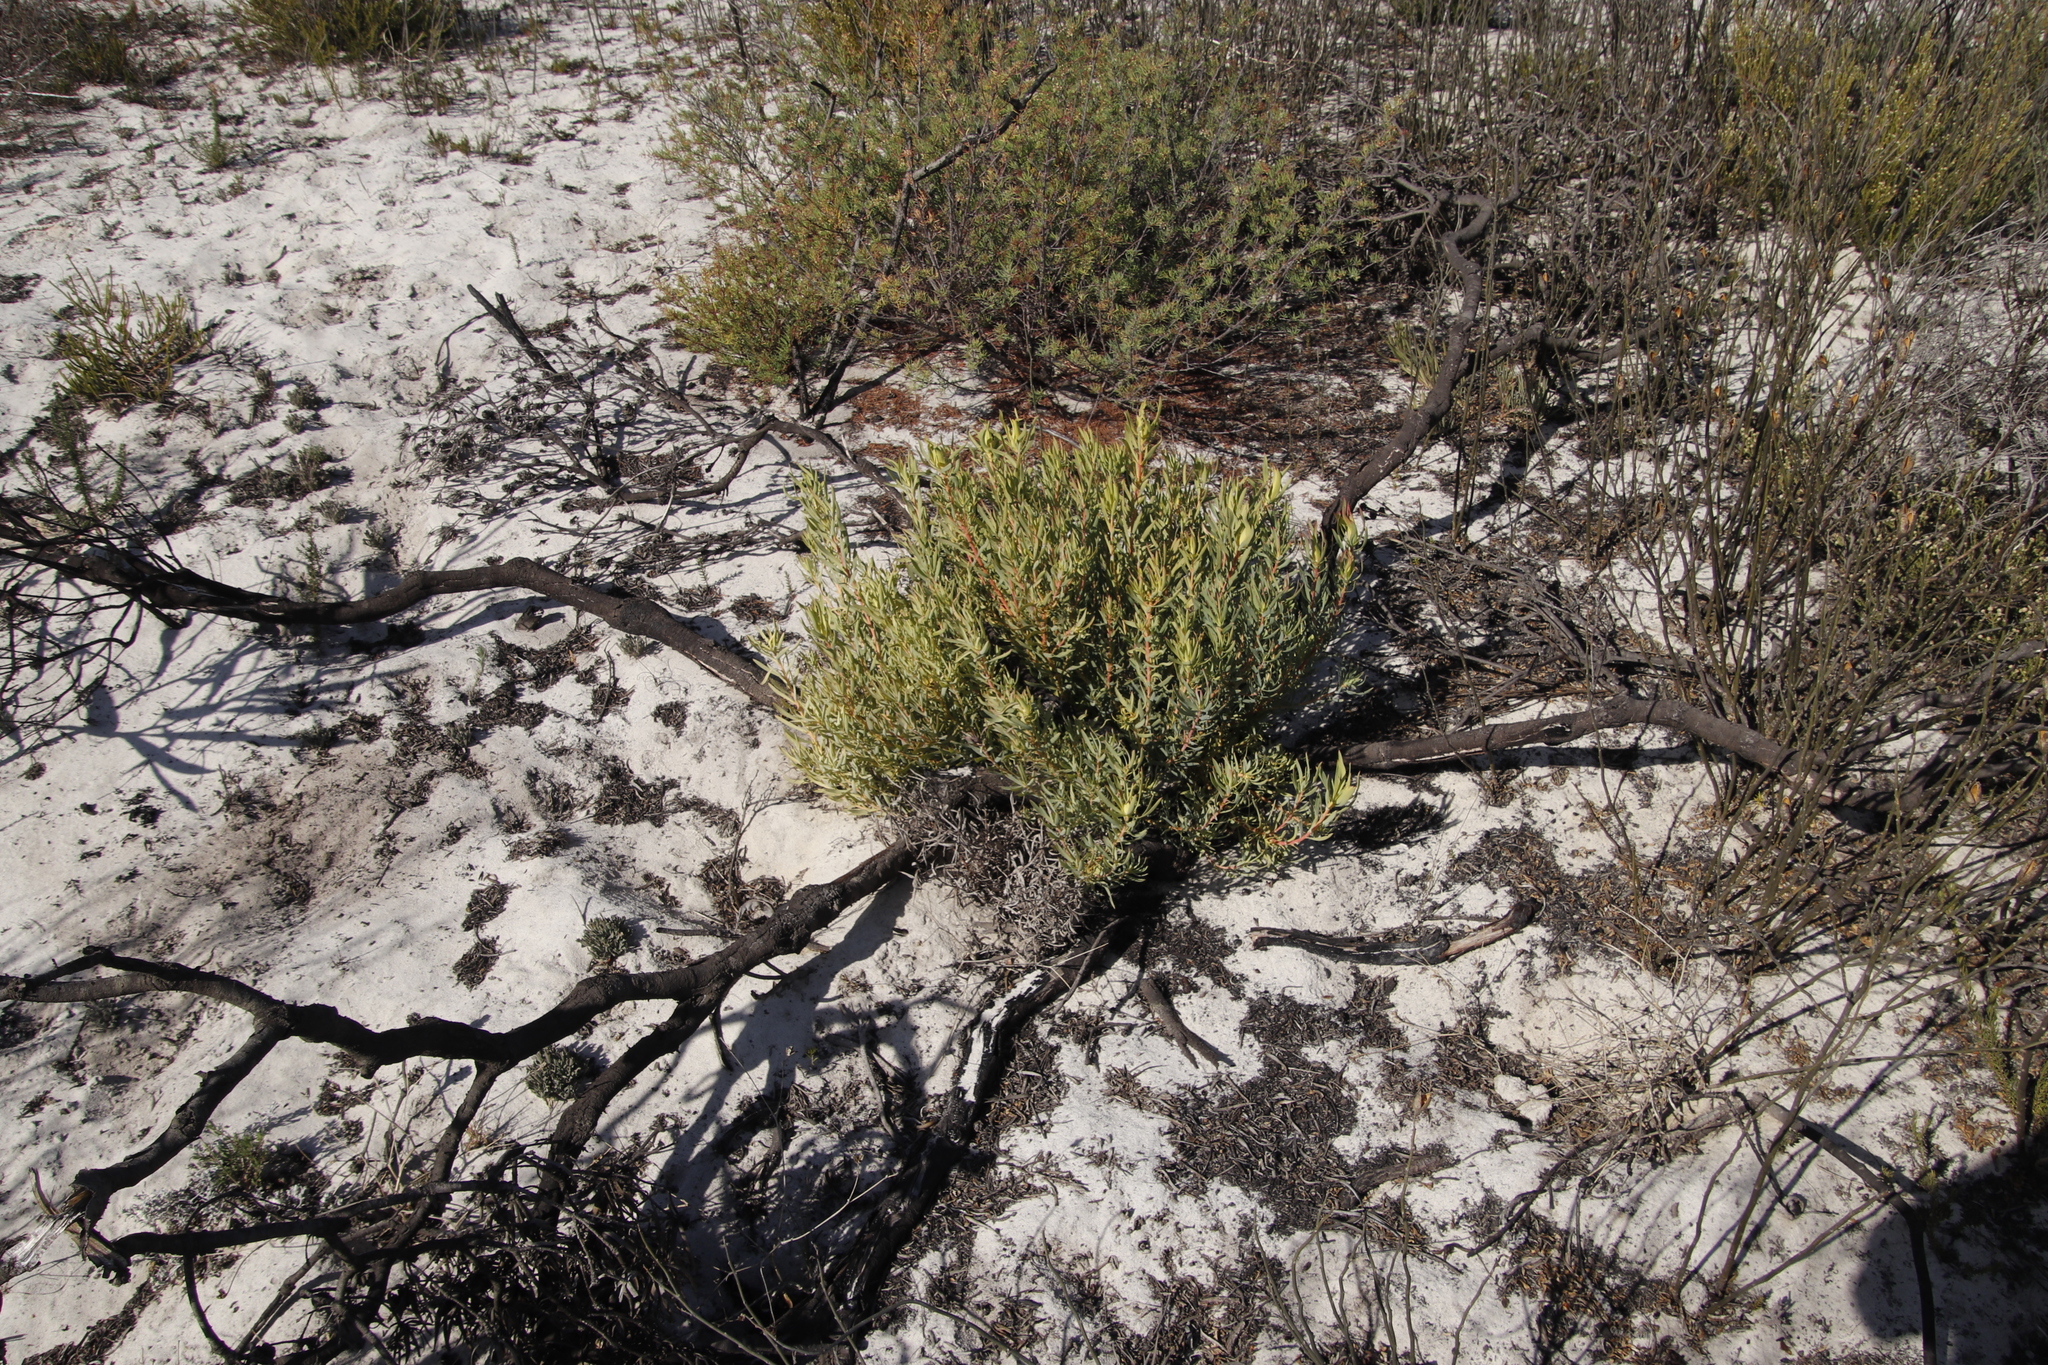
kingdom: Plantae
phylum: Tracheophyta
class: Magnoliopsida
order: Proteales
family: Proteaceae
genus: Leucadendron
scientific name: Leucadendron salignum
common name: Common sunshine conebush
